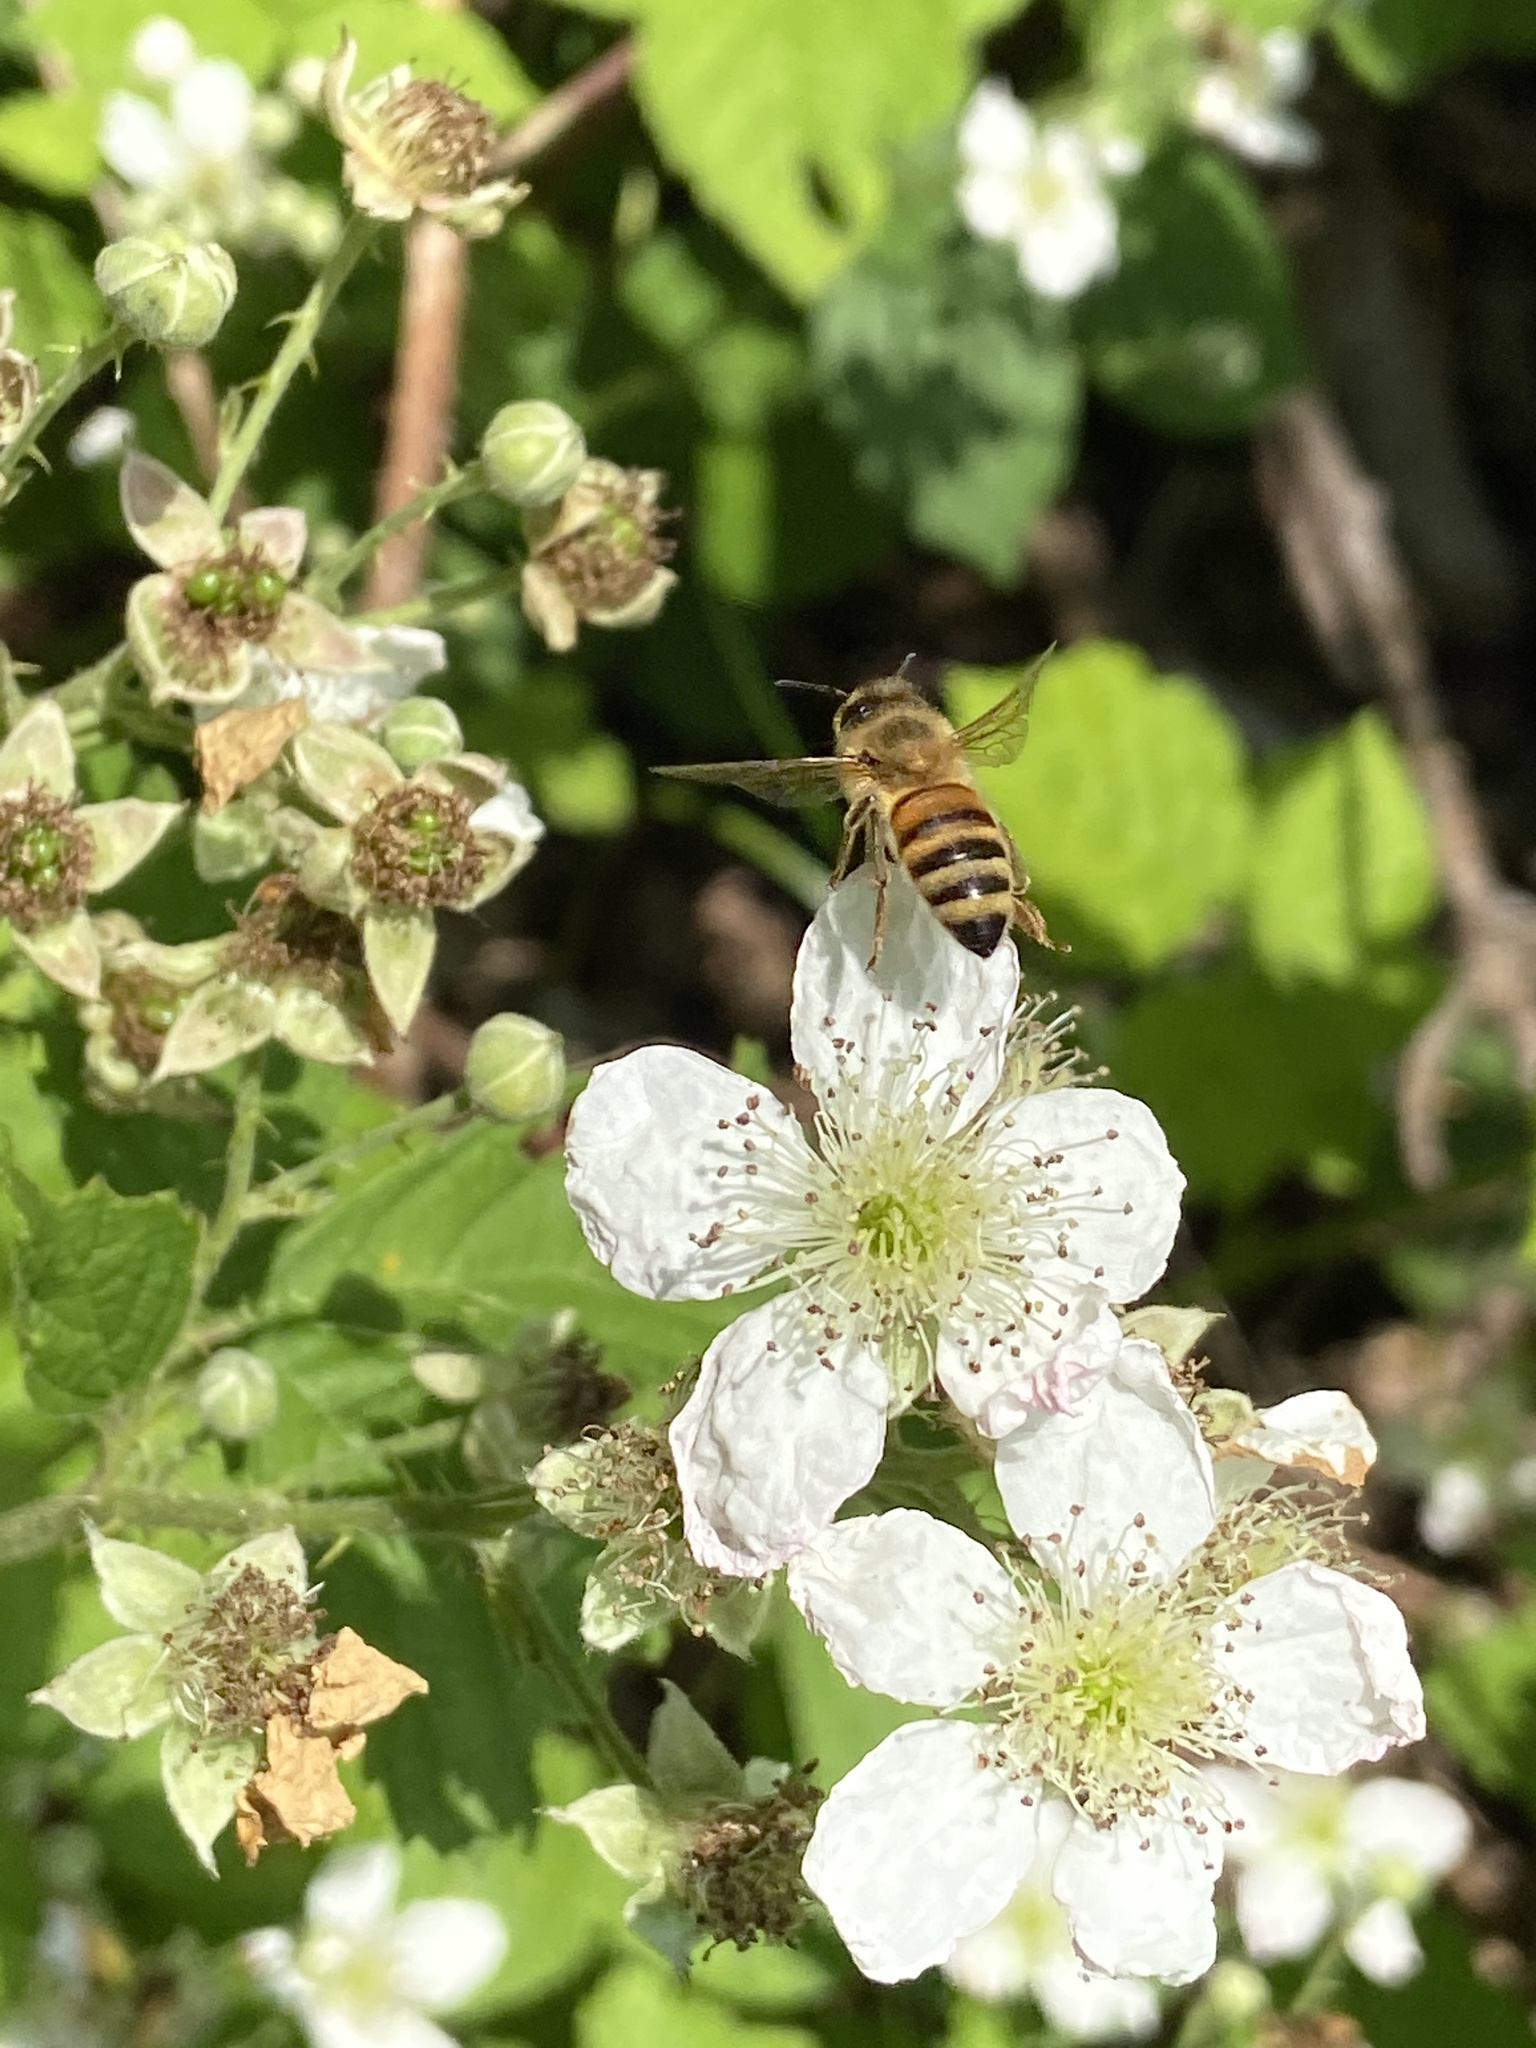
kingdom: Animalia
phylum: Arthropoda
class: Insecta
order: Hymenoptera
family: Apidae
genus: Apis
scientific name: Apis mellifera
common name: Honey bee
